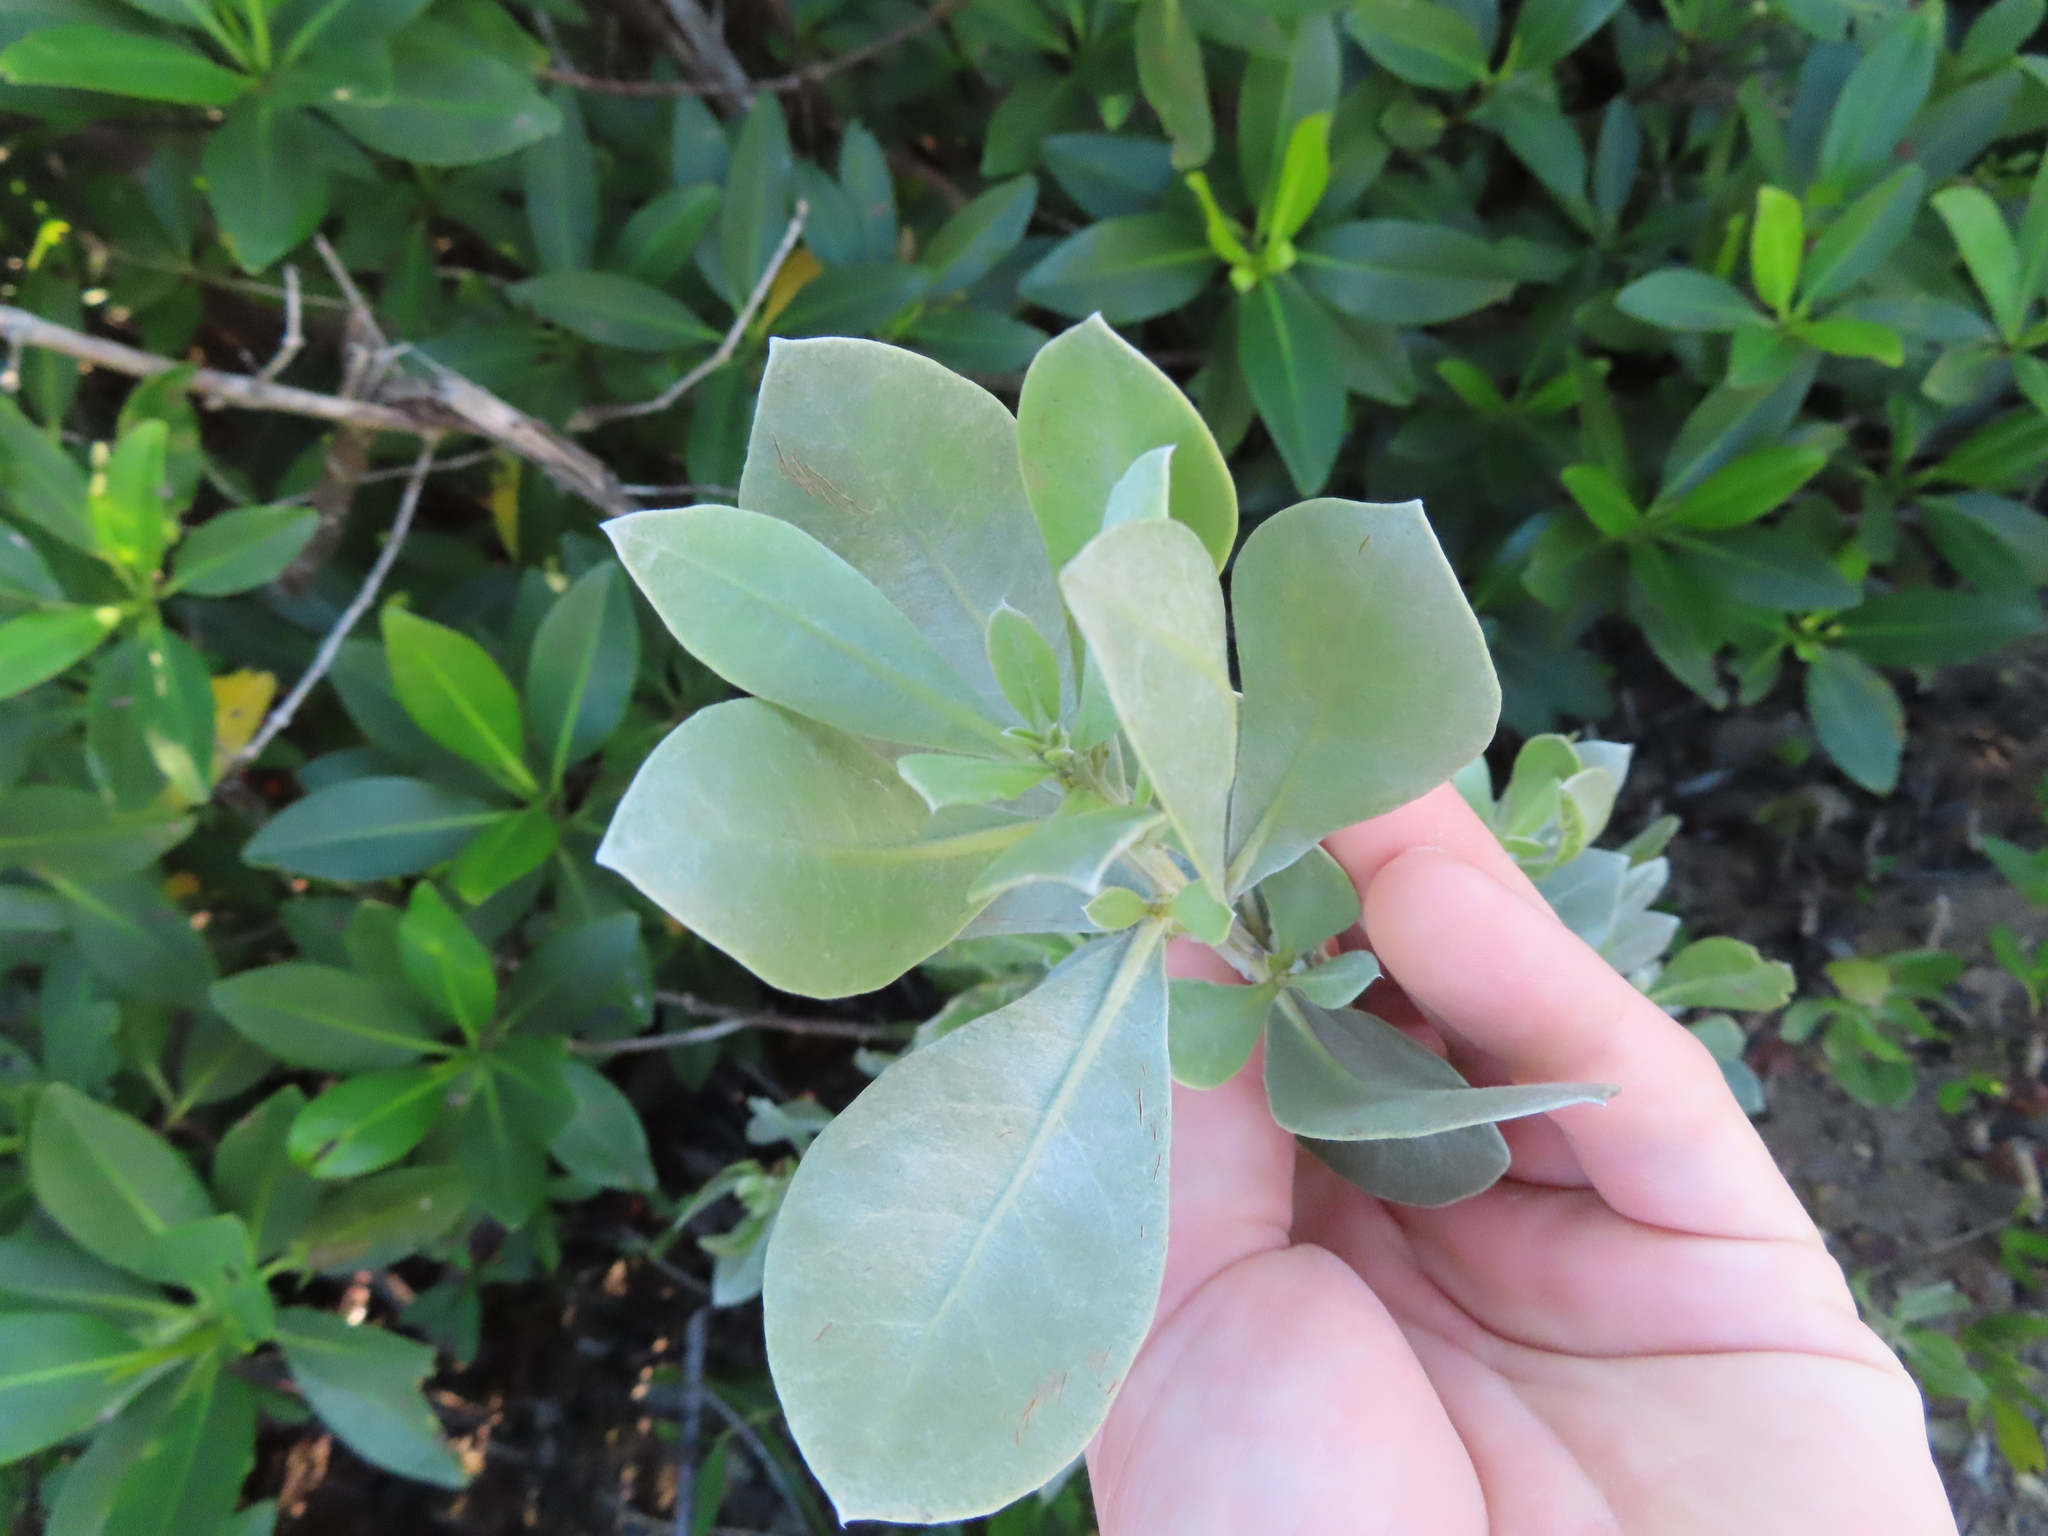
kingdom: Plantae
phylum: Tracheophyta
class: Magnoliopsida
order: Myrtales
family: Combretaceae
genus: Conocarpus
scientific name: Conocarpus erectus
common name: Button mangrove
